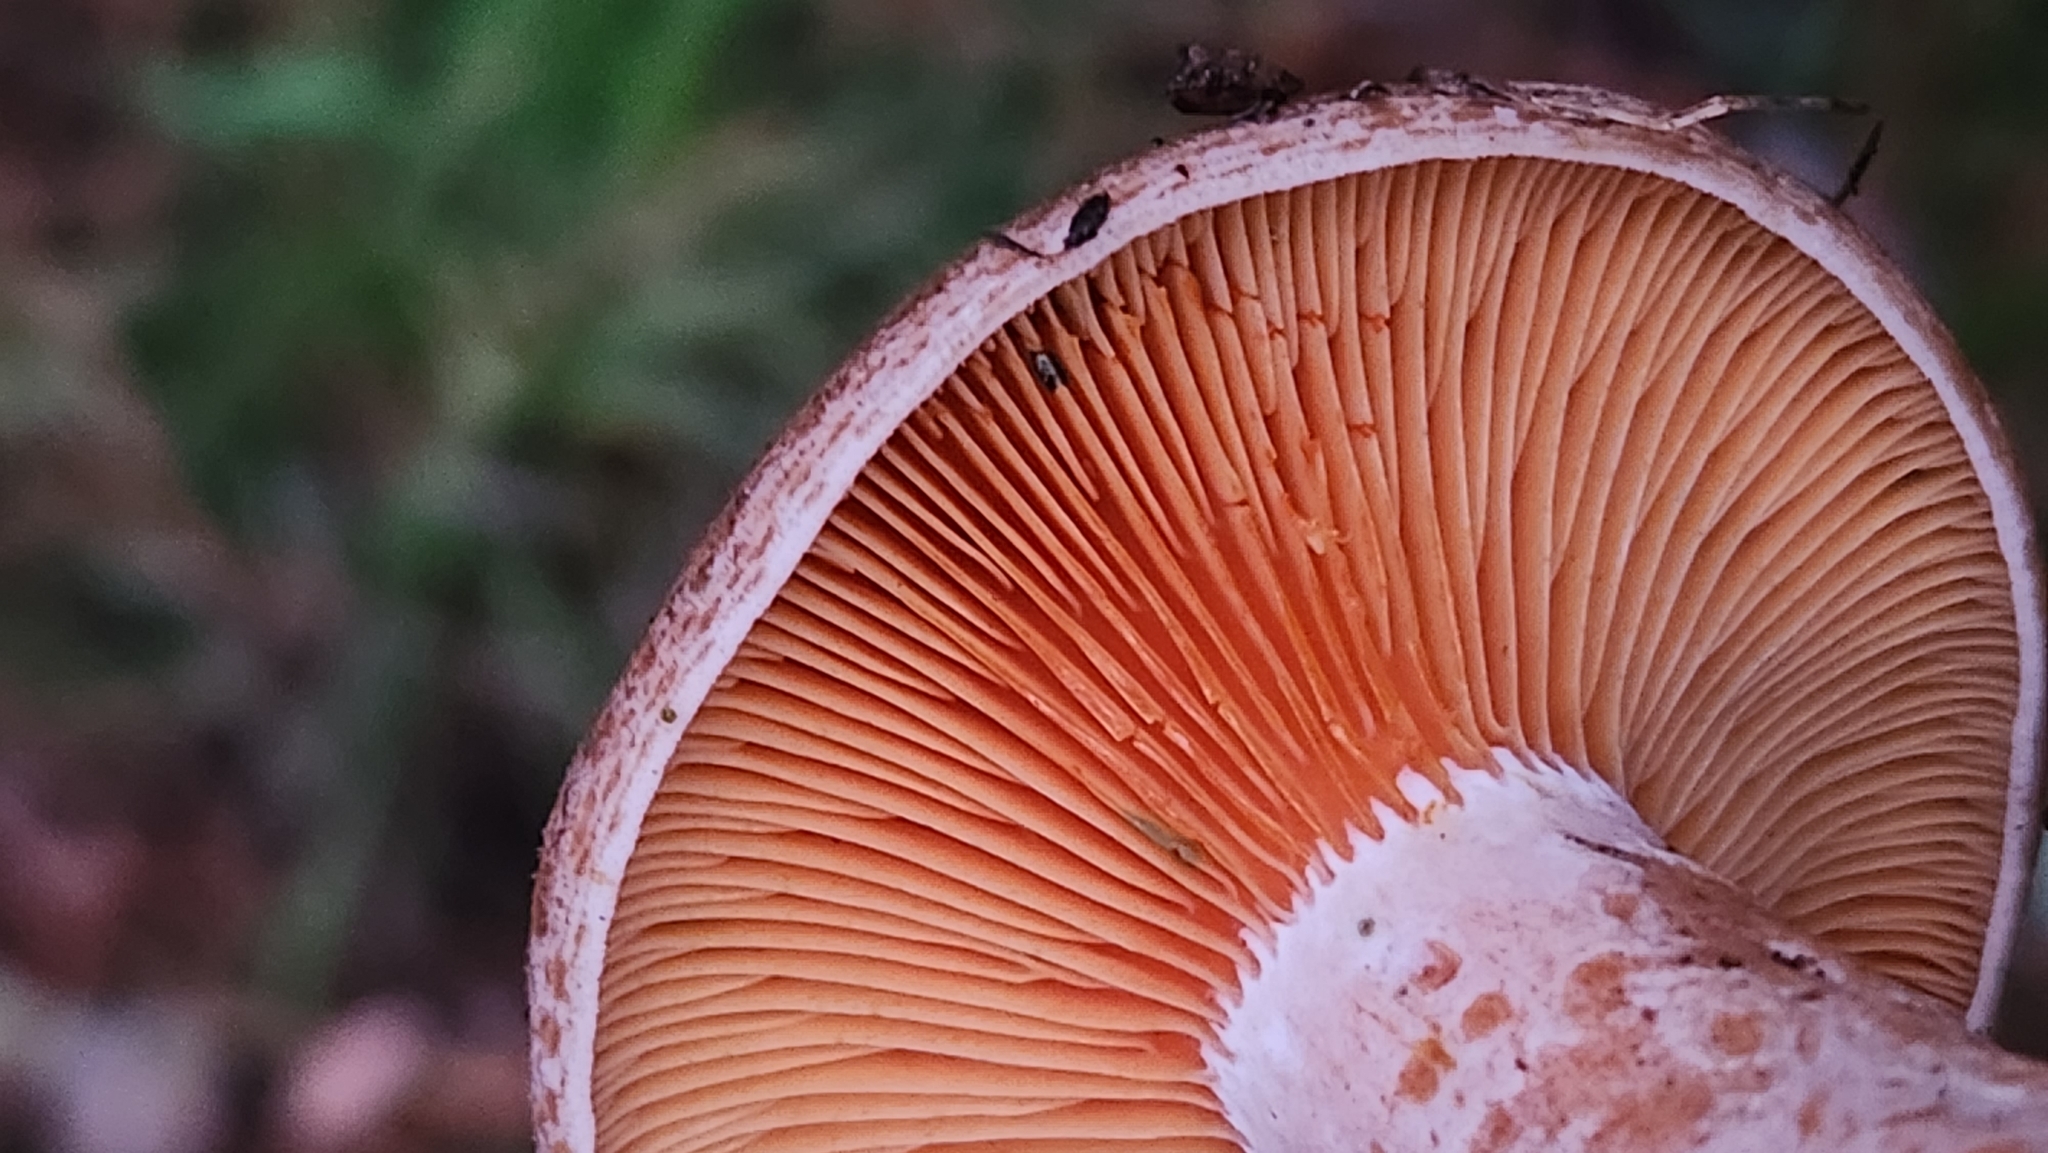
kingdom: Fungi
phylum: Basidiomycota
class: Agaricomycetes
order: Russulales
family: Russulaceae
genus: Lactarius
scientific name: Lactarius deliciosus
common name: Saffron milk-cap
